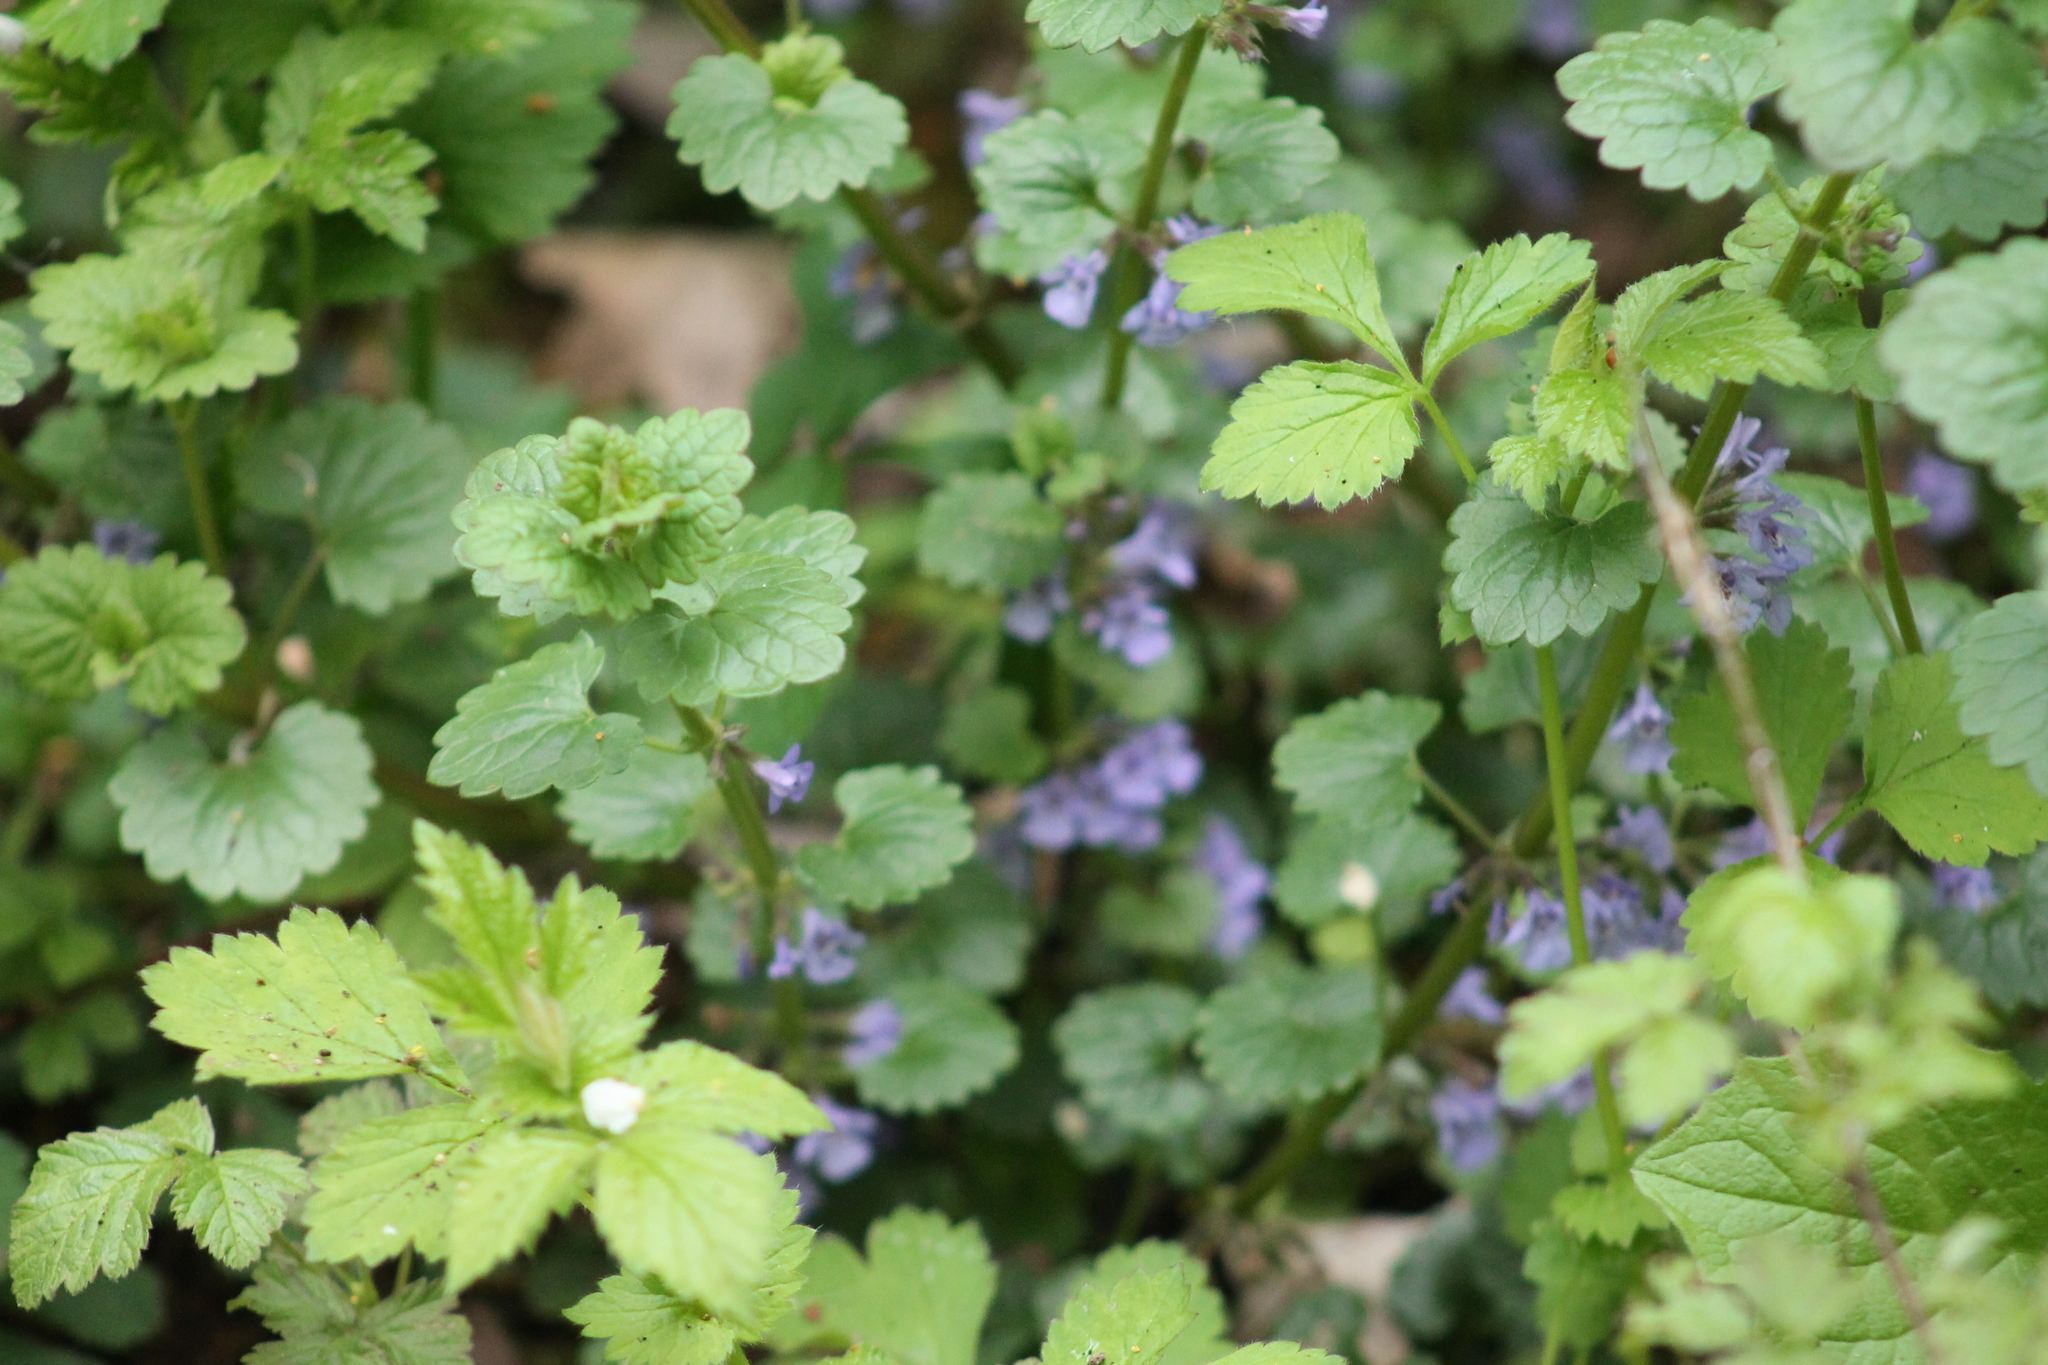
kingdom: Plantae
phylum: Tracheophyta
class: Magnoliopsida
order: Lamiales
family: Lamiaceae
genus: Glechoma
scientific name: Glechoma hederacea
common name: Ground ivy
